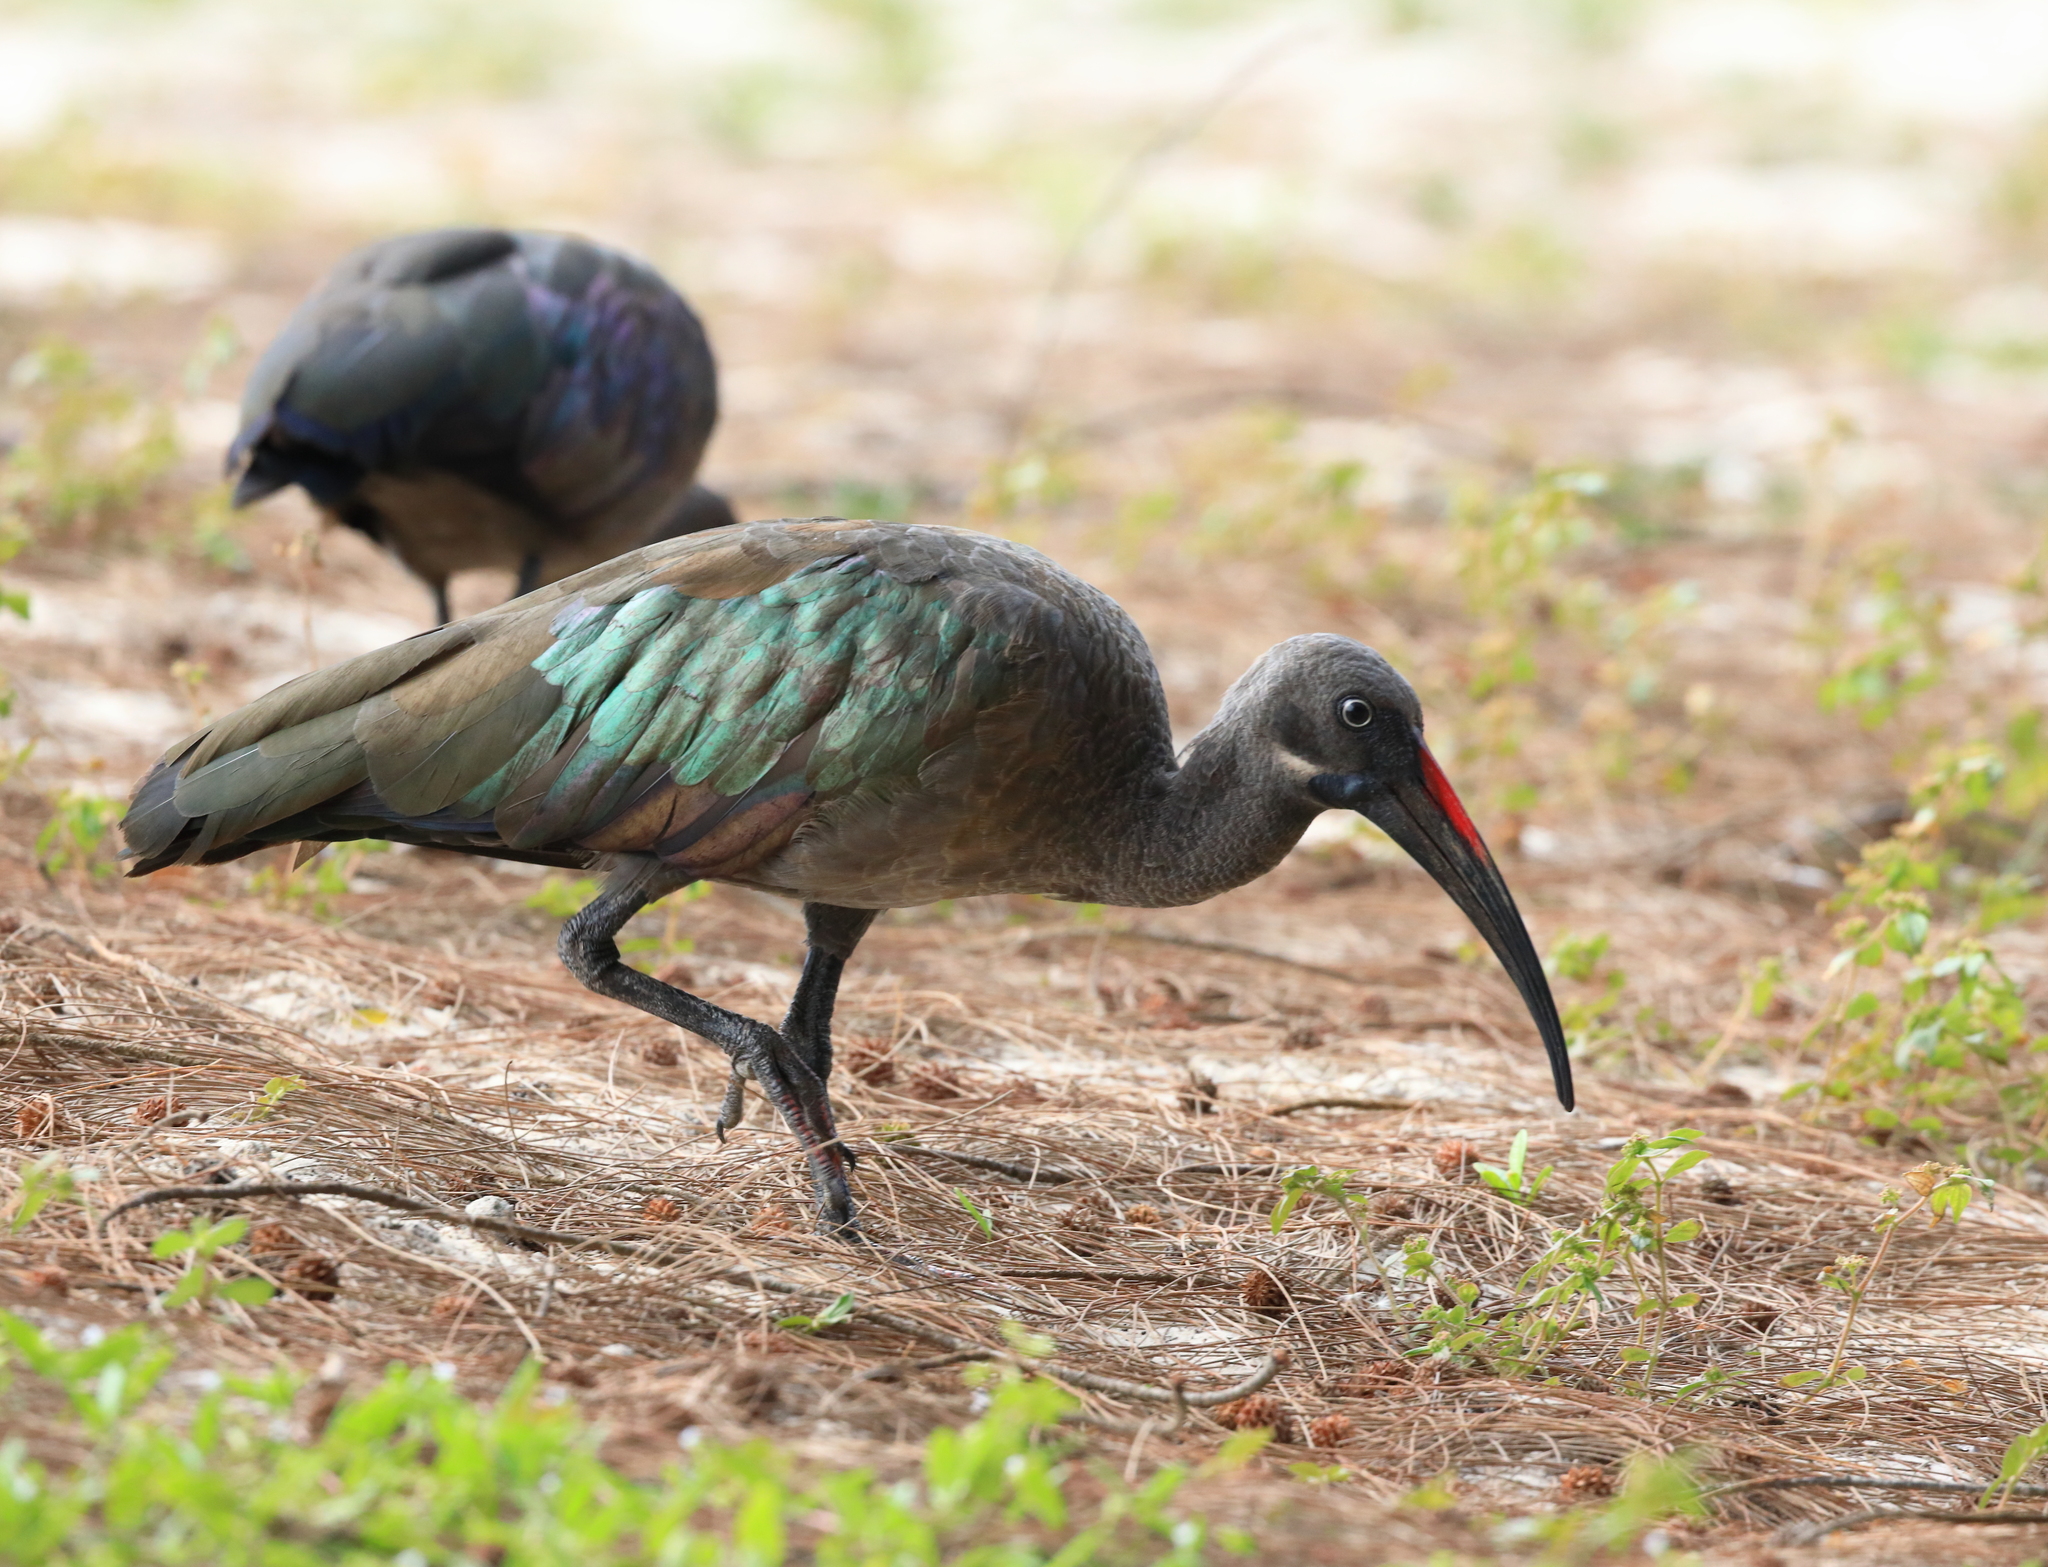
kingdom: Animalia
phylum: Chordata
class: Aves
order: Pelecaniformes
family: Threskiornithidae
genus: Bostrychia
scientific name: Bostrychia hagedash
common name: Hadada ibis
